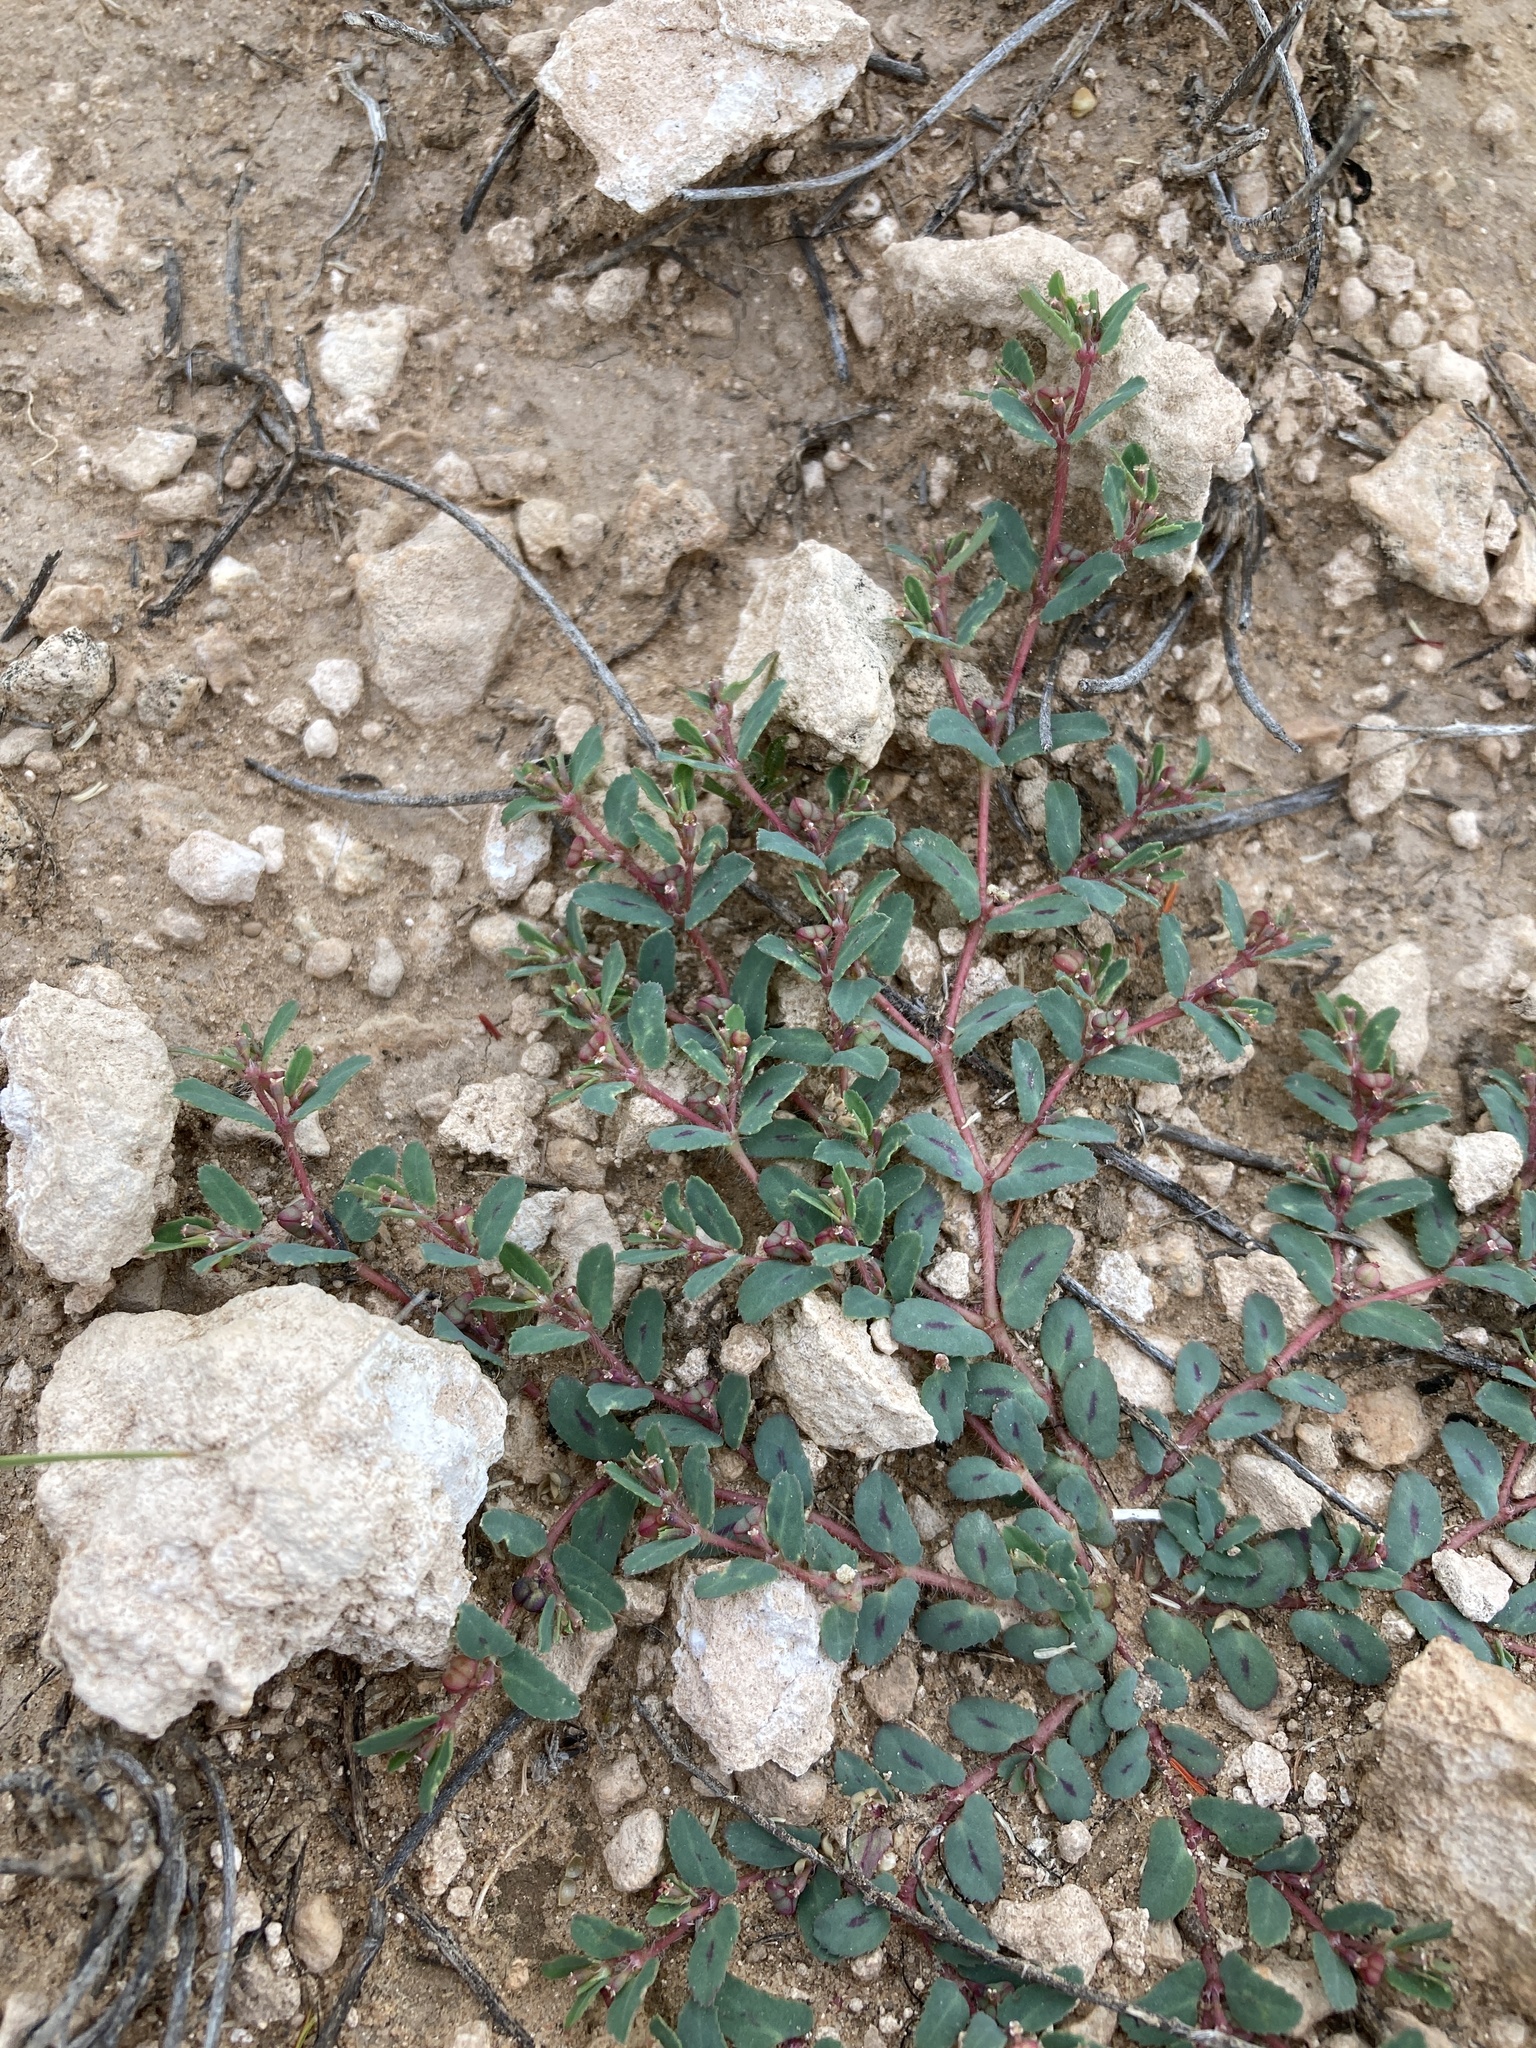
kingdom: Plantae
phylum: Tracheophyta
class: Magnoliopsida
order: Malpighiales
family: Euphorbiaceae
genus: Euphorbia
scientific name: Euphorbia serrula
